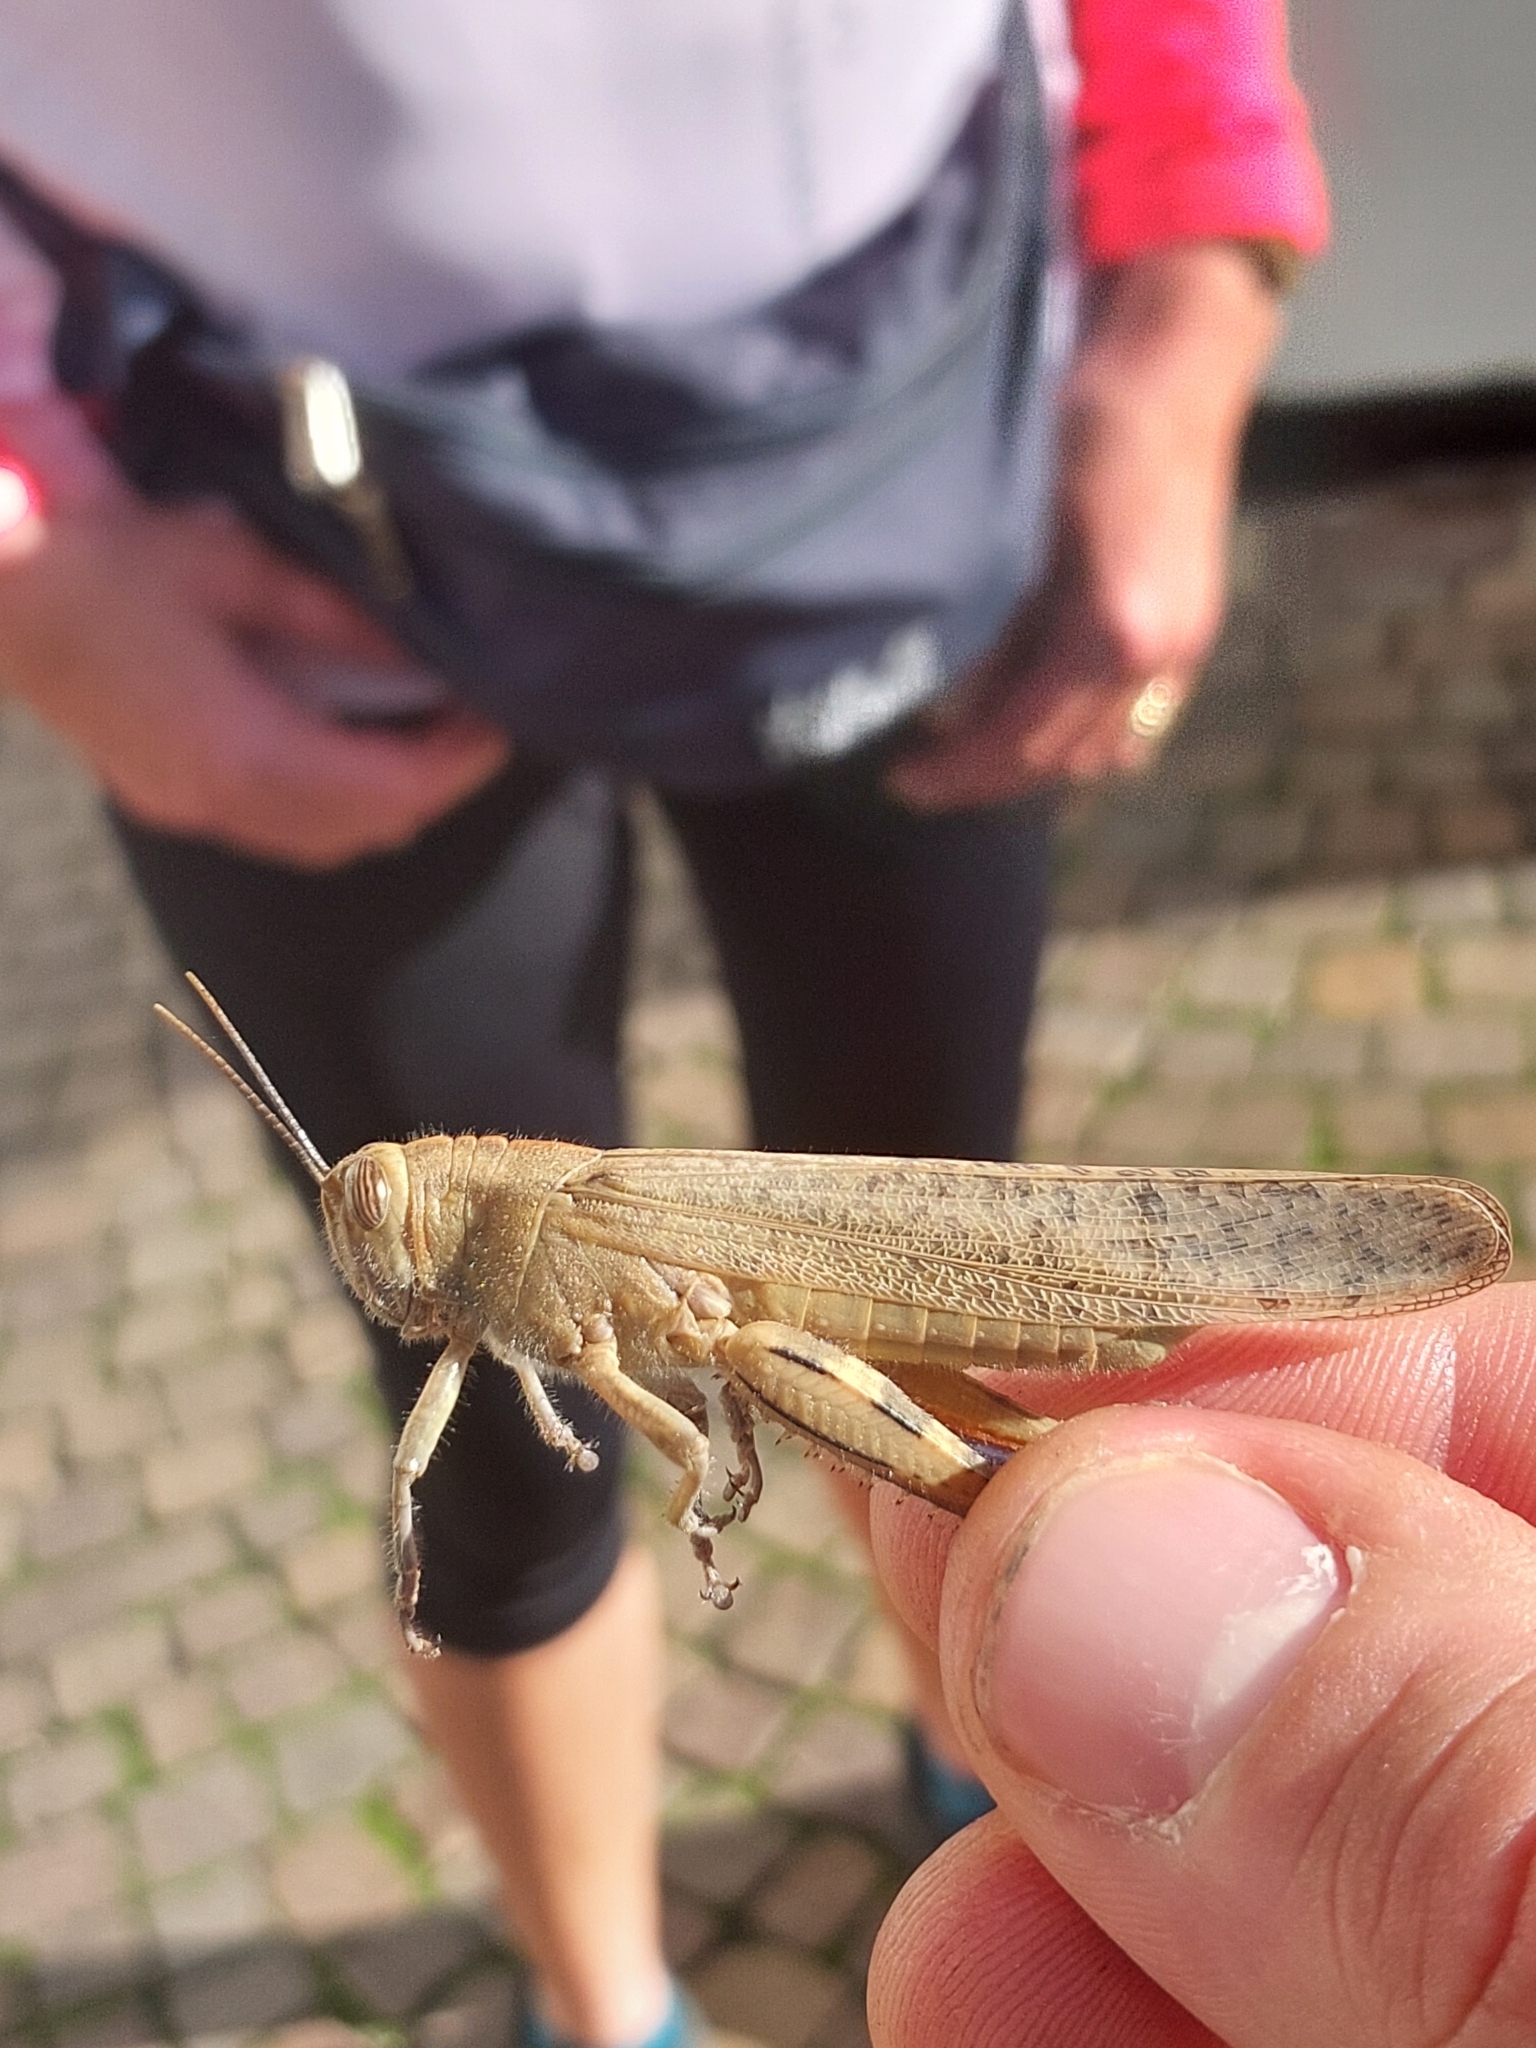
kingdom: Animalia
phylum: Arthropoda
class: Insecta
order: Orthoptera
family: Acrididae
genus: Anacridium
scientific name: Anacridium aegyptium
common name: Egyptian grasshopper
